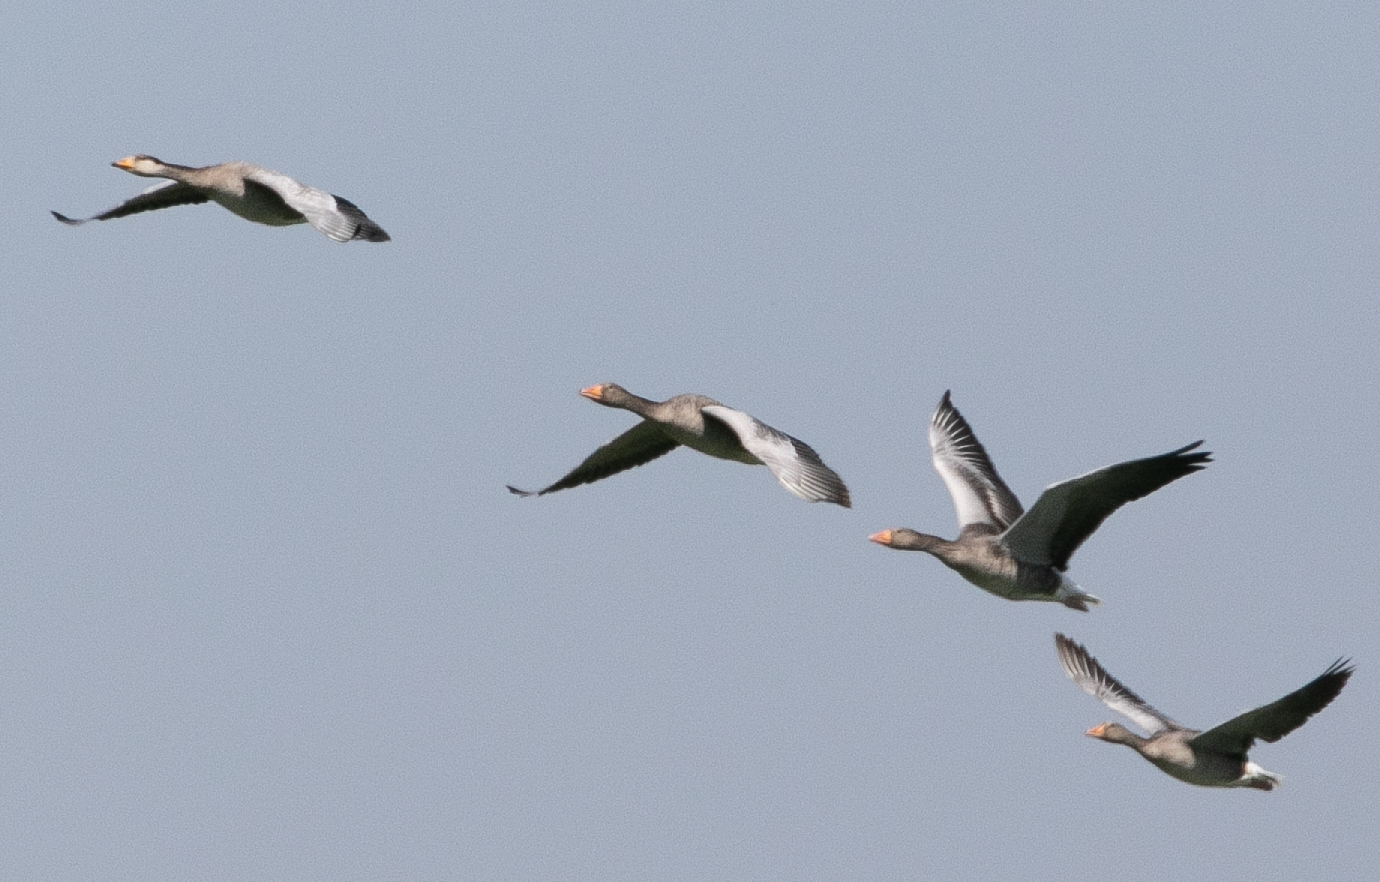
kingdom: Animalia
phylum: Chordata
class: Aves
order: Anseriformes
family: Anatidae
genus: Anser
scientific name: Anser anser
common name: Greylag goose
